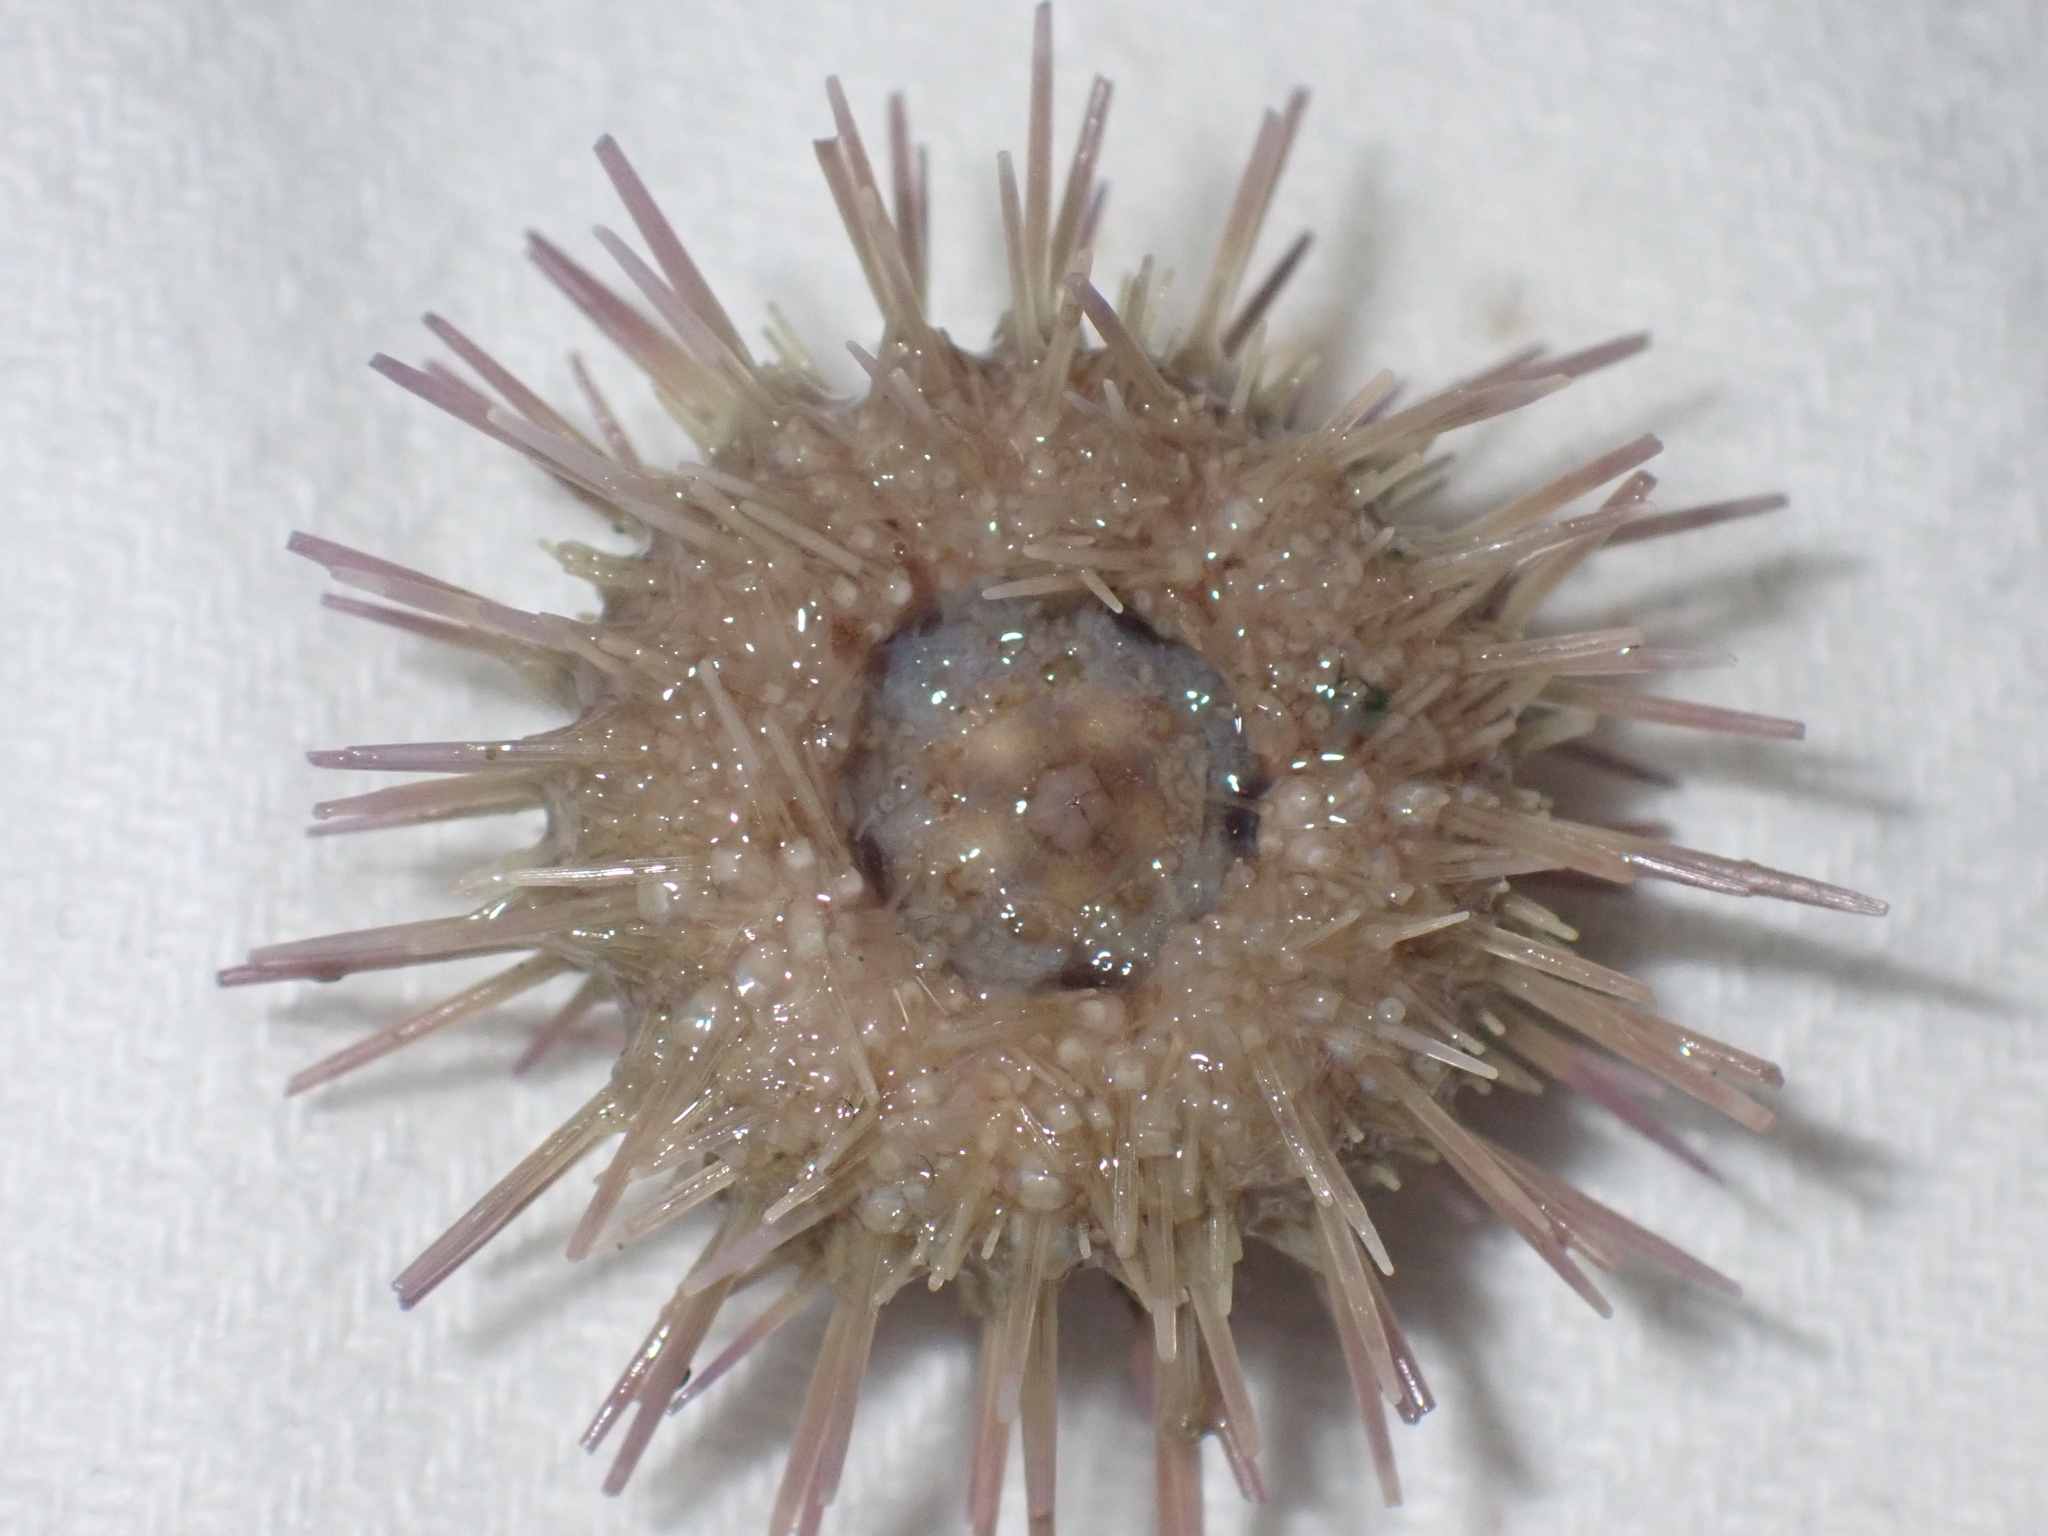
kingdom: Animalia
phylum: Echinodermata
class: Echinoidea
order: Camarodonta
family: Parechinidae
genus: Psammechinus
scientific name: Psammechinus miliaris
